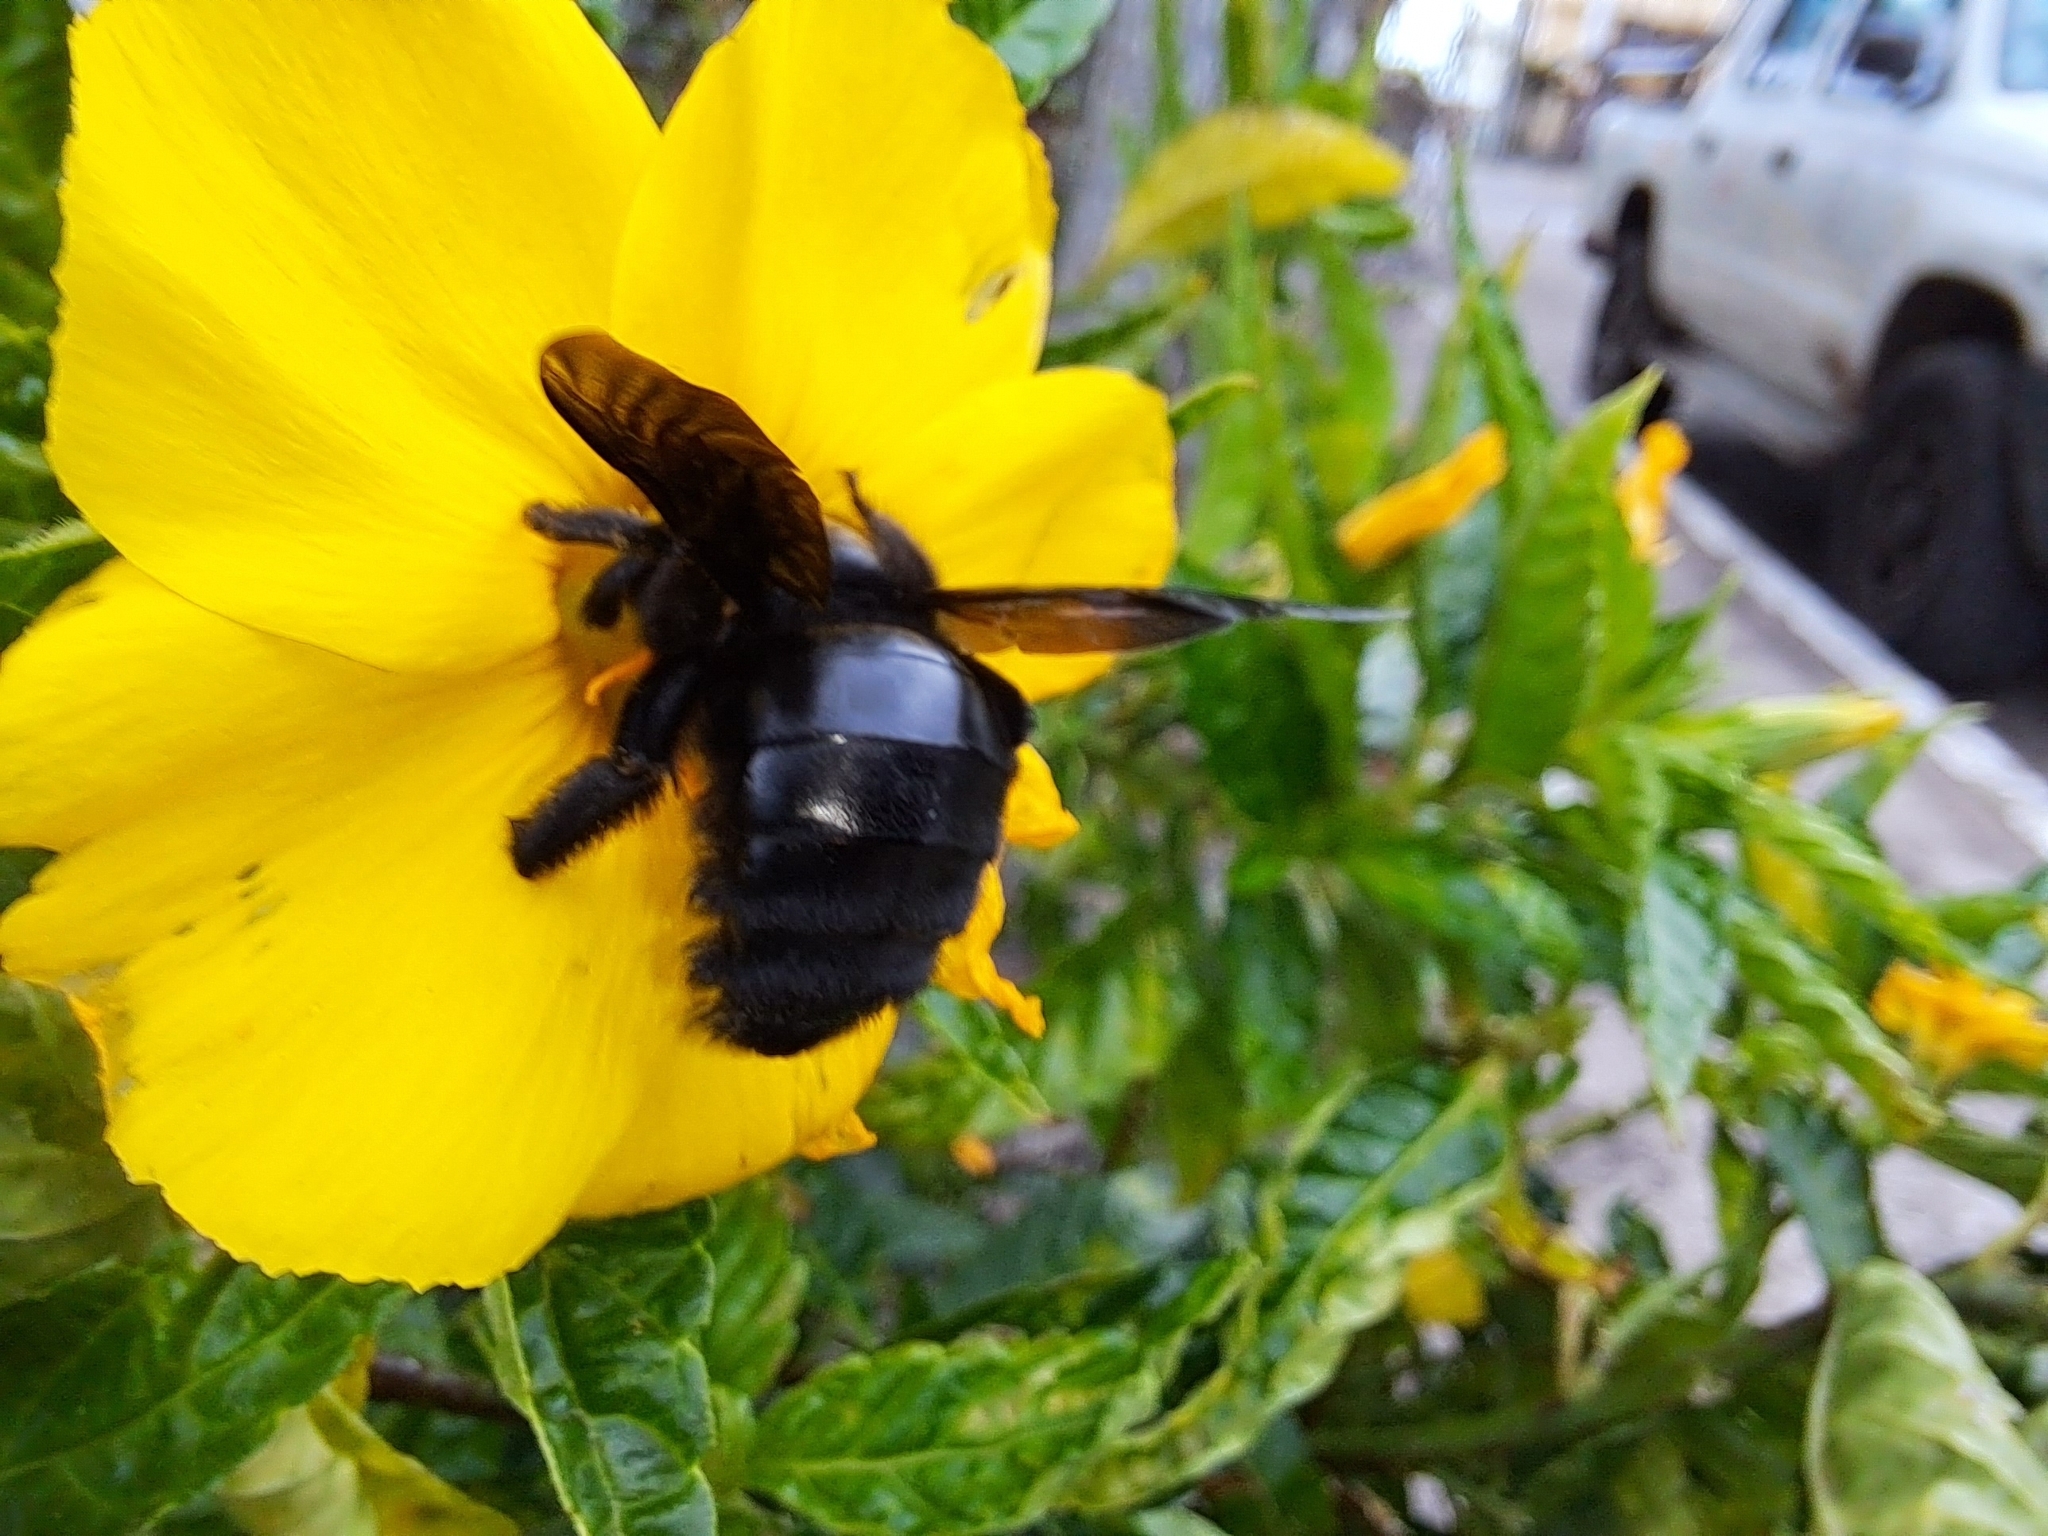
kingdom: Animalia
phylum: Arthropoda
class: Insecta
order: Hymenoptera
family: Apidae
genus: Xylocopa
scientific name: Xylocopa darwini
